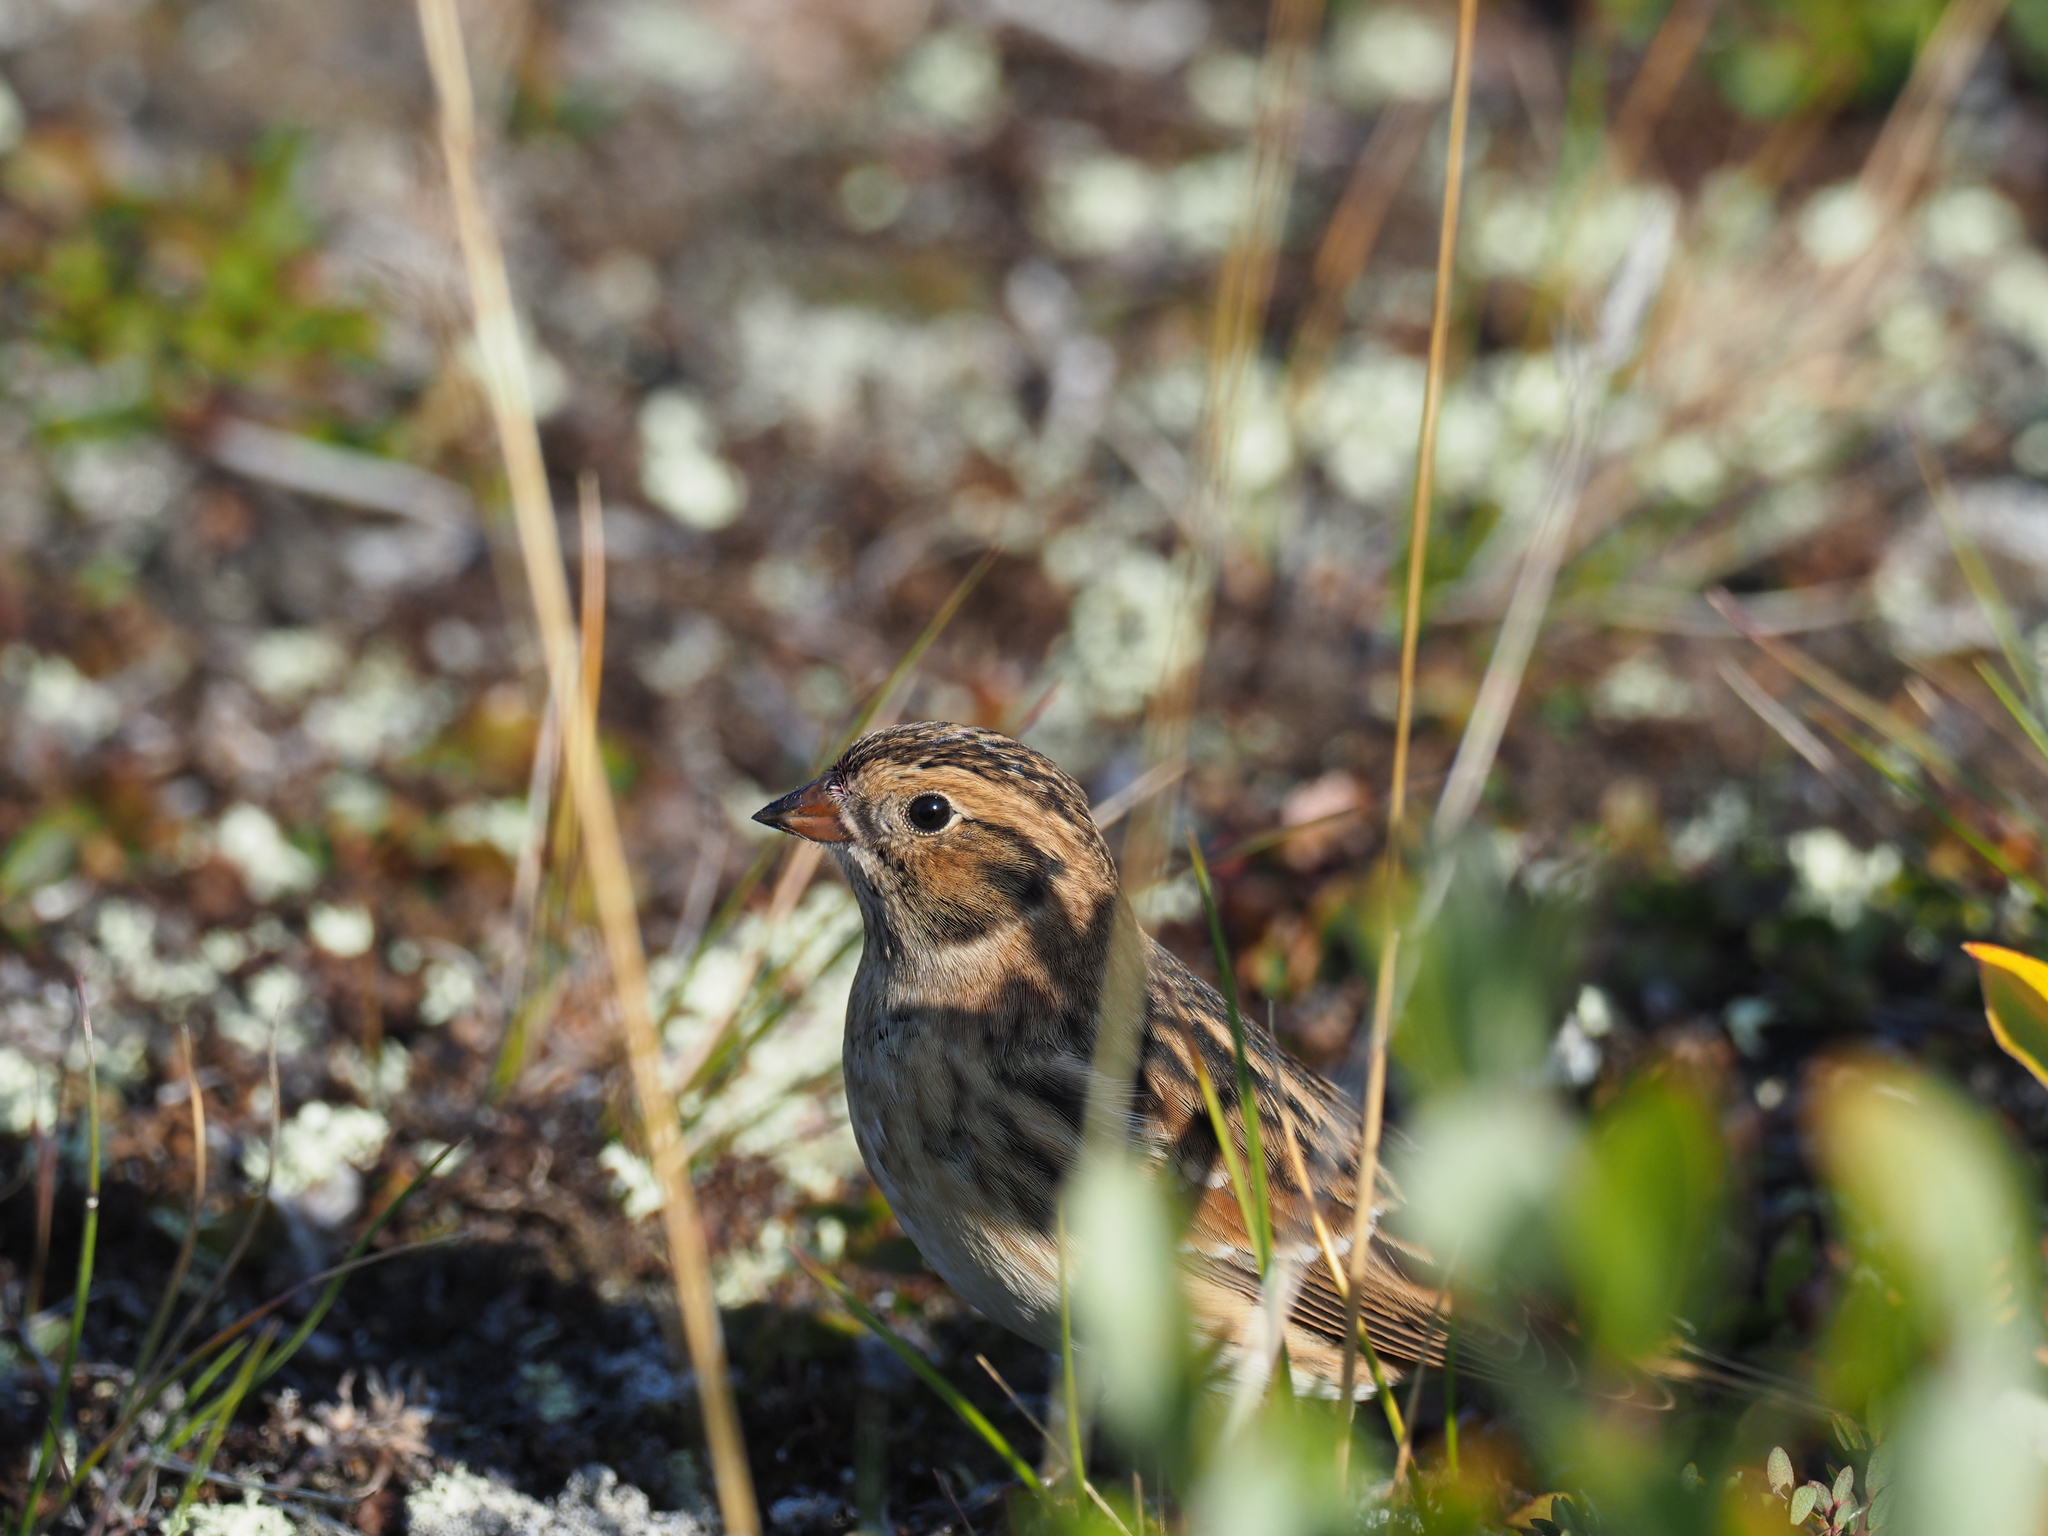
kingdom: Animalia
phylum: Chordata
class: Aves
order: Passeriformes
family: Calcariidae
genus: Calcarius
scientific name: Calcarius lapponicus
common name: Lapland longspur
